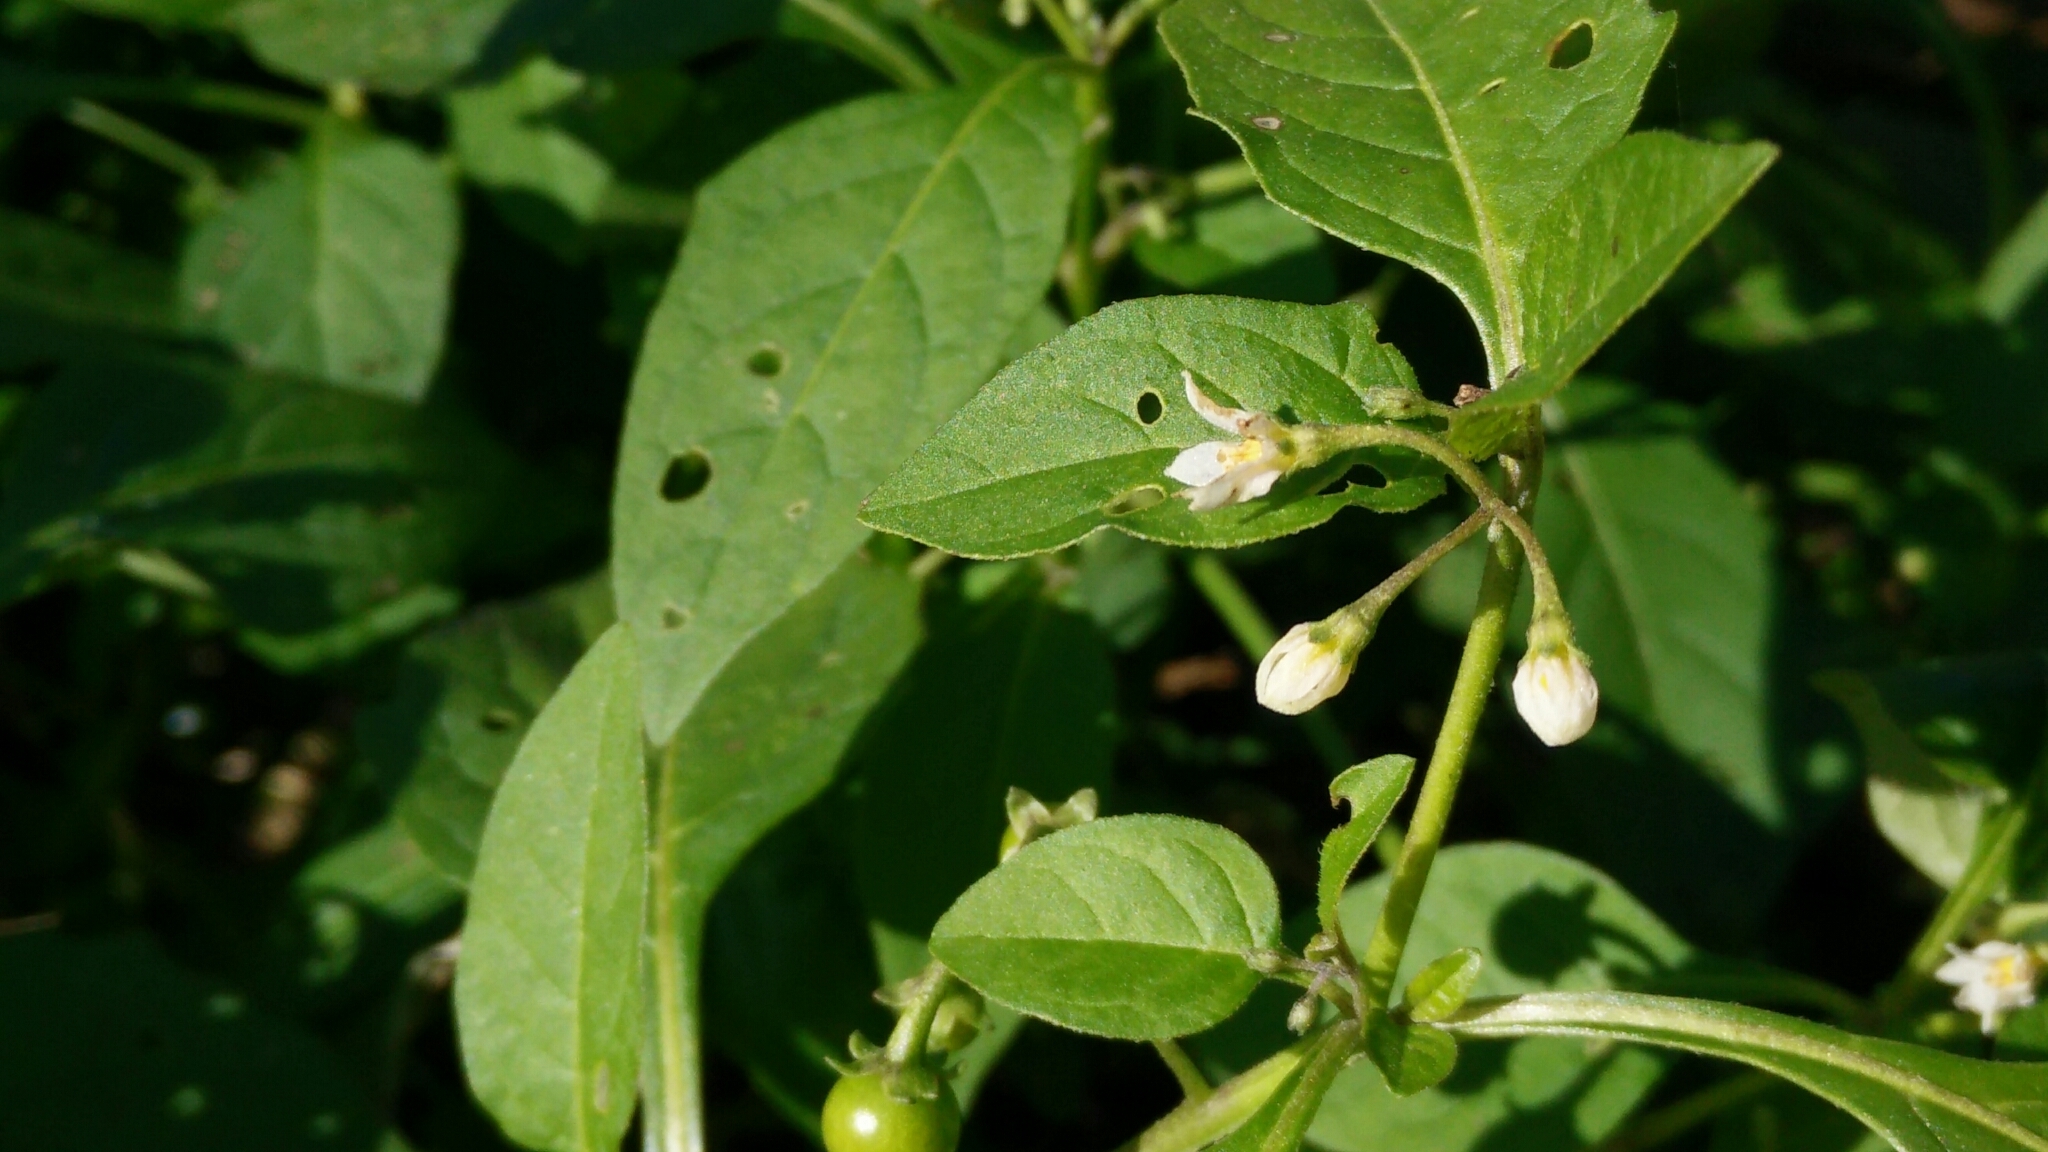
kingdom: Plantae
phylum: Tracheophyta
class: Magnoliopsida
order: Solanales
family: Solanaceae
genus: Solanum
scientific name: Solanum emulans
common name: Eastern black nightshade
